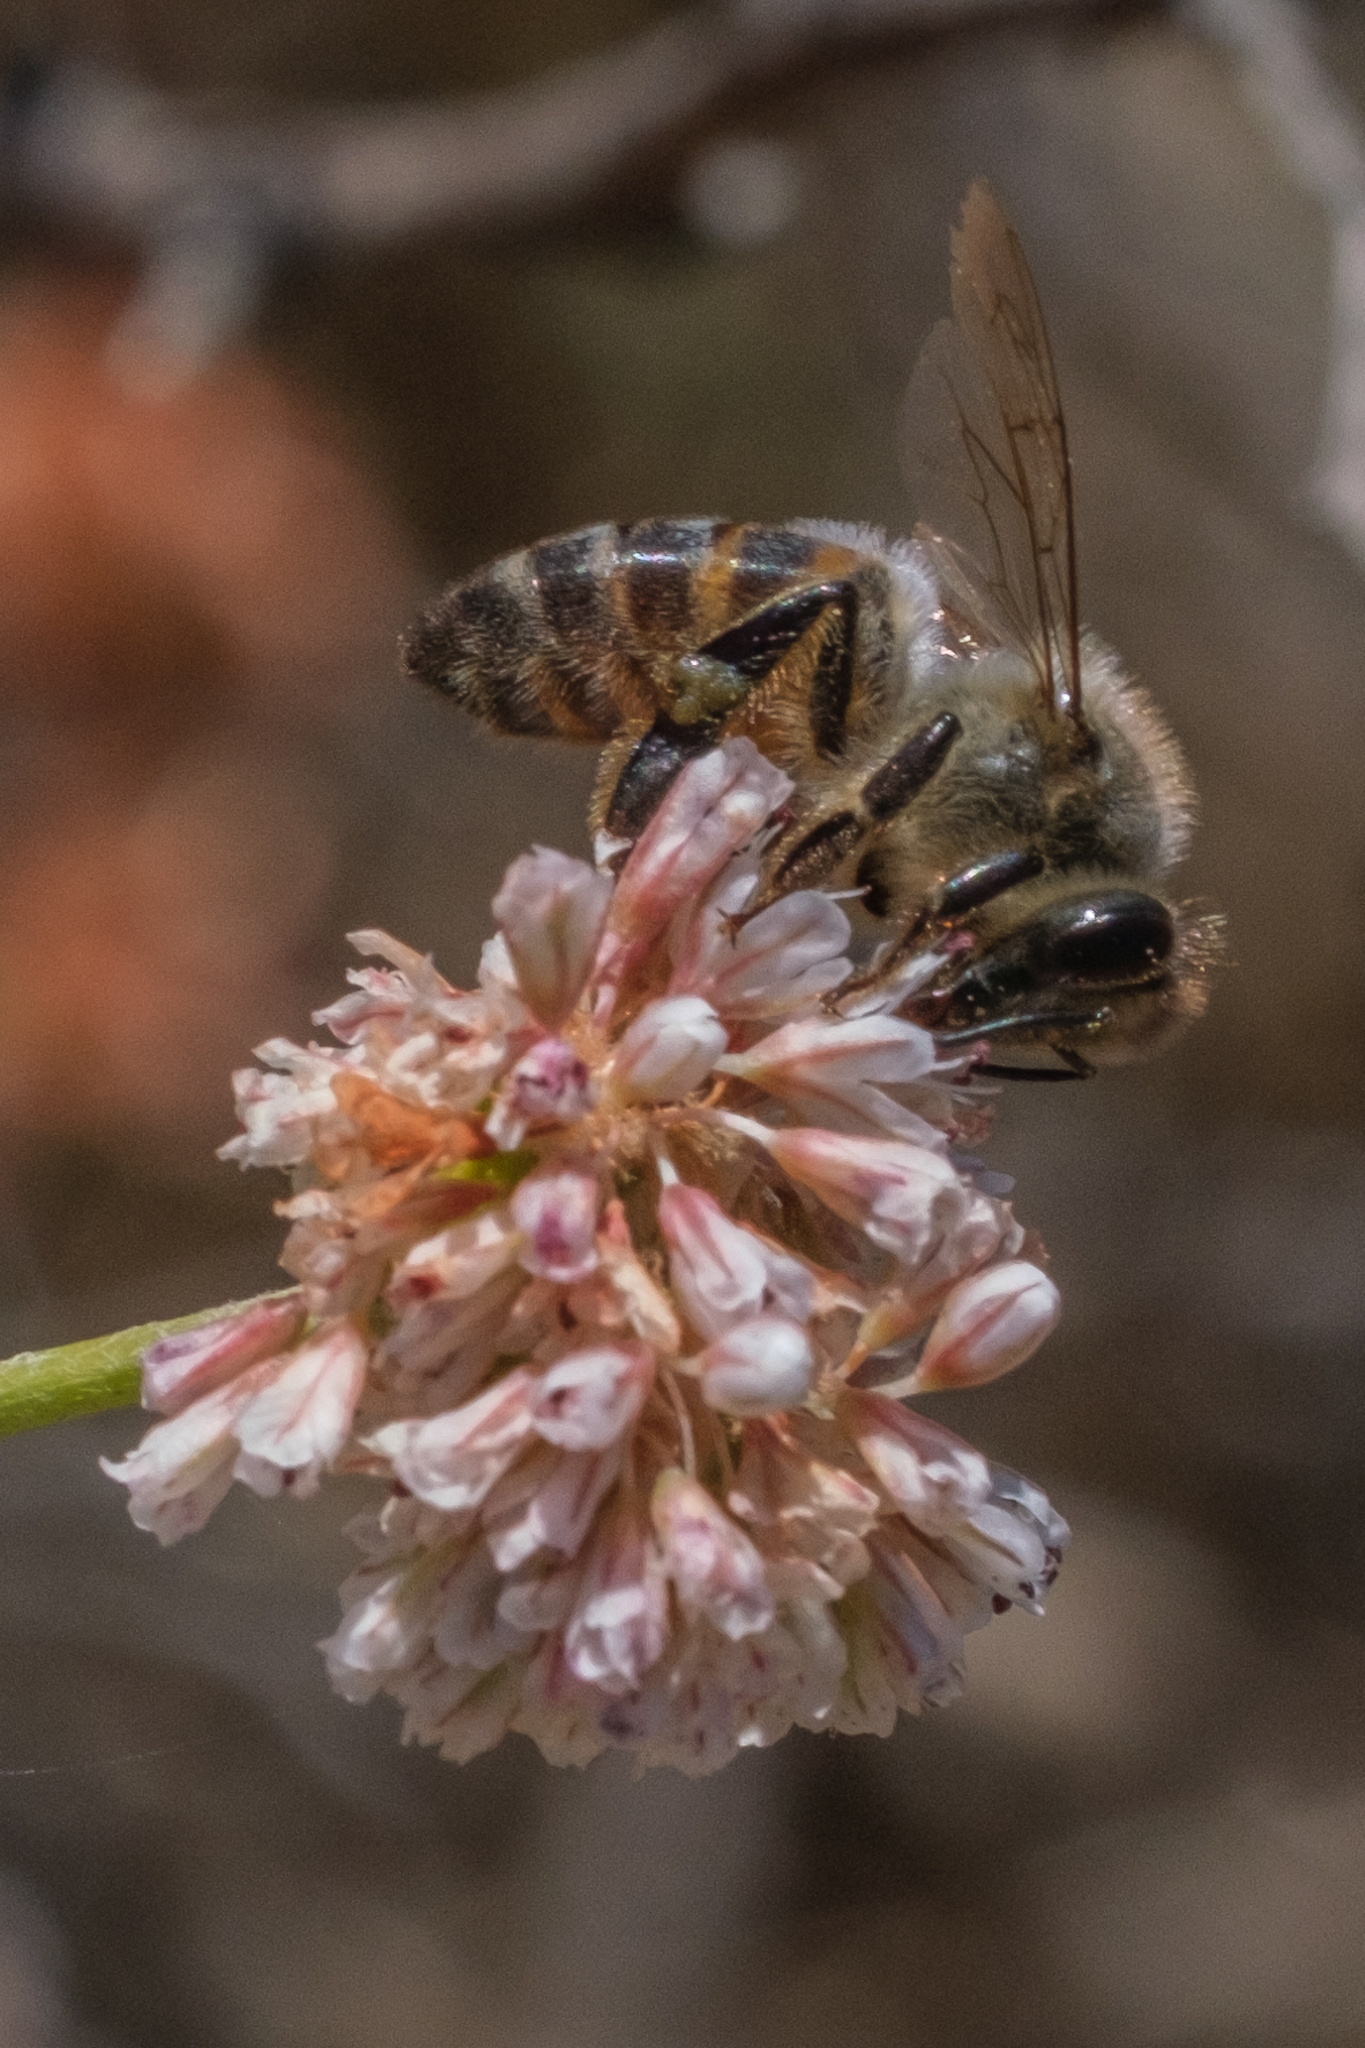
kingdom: Animalia
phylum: Arthropoda
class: Insecta
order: Hymenoptera
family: Apidae
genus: Apis
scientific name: Apis mellifera
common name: Honey bee
